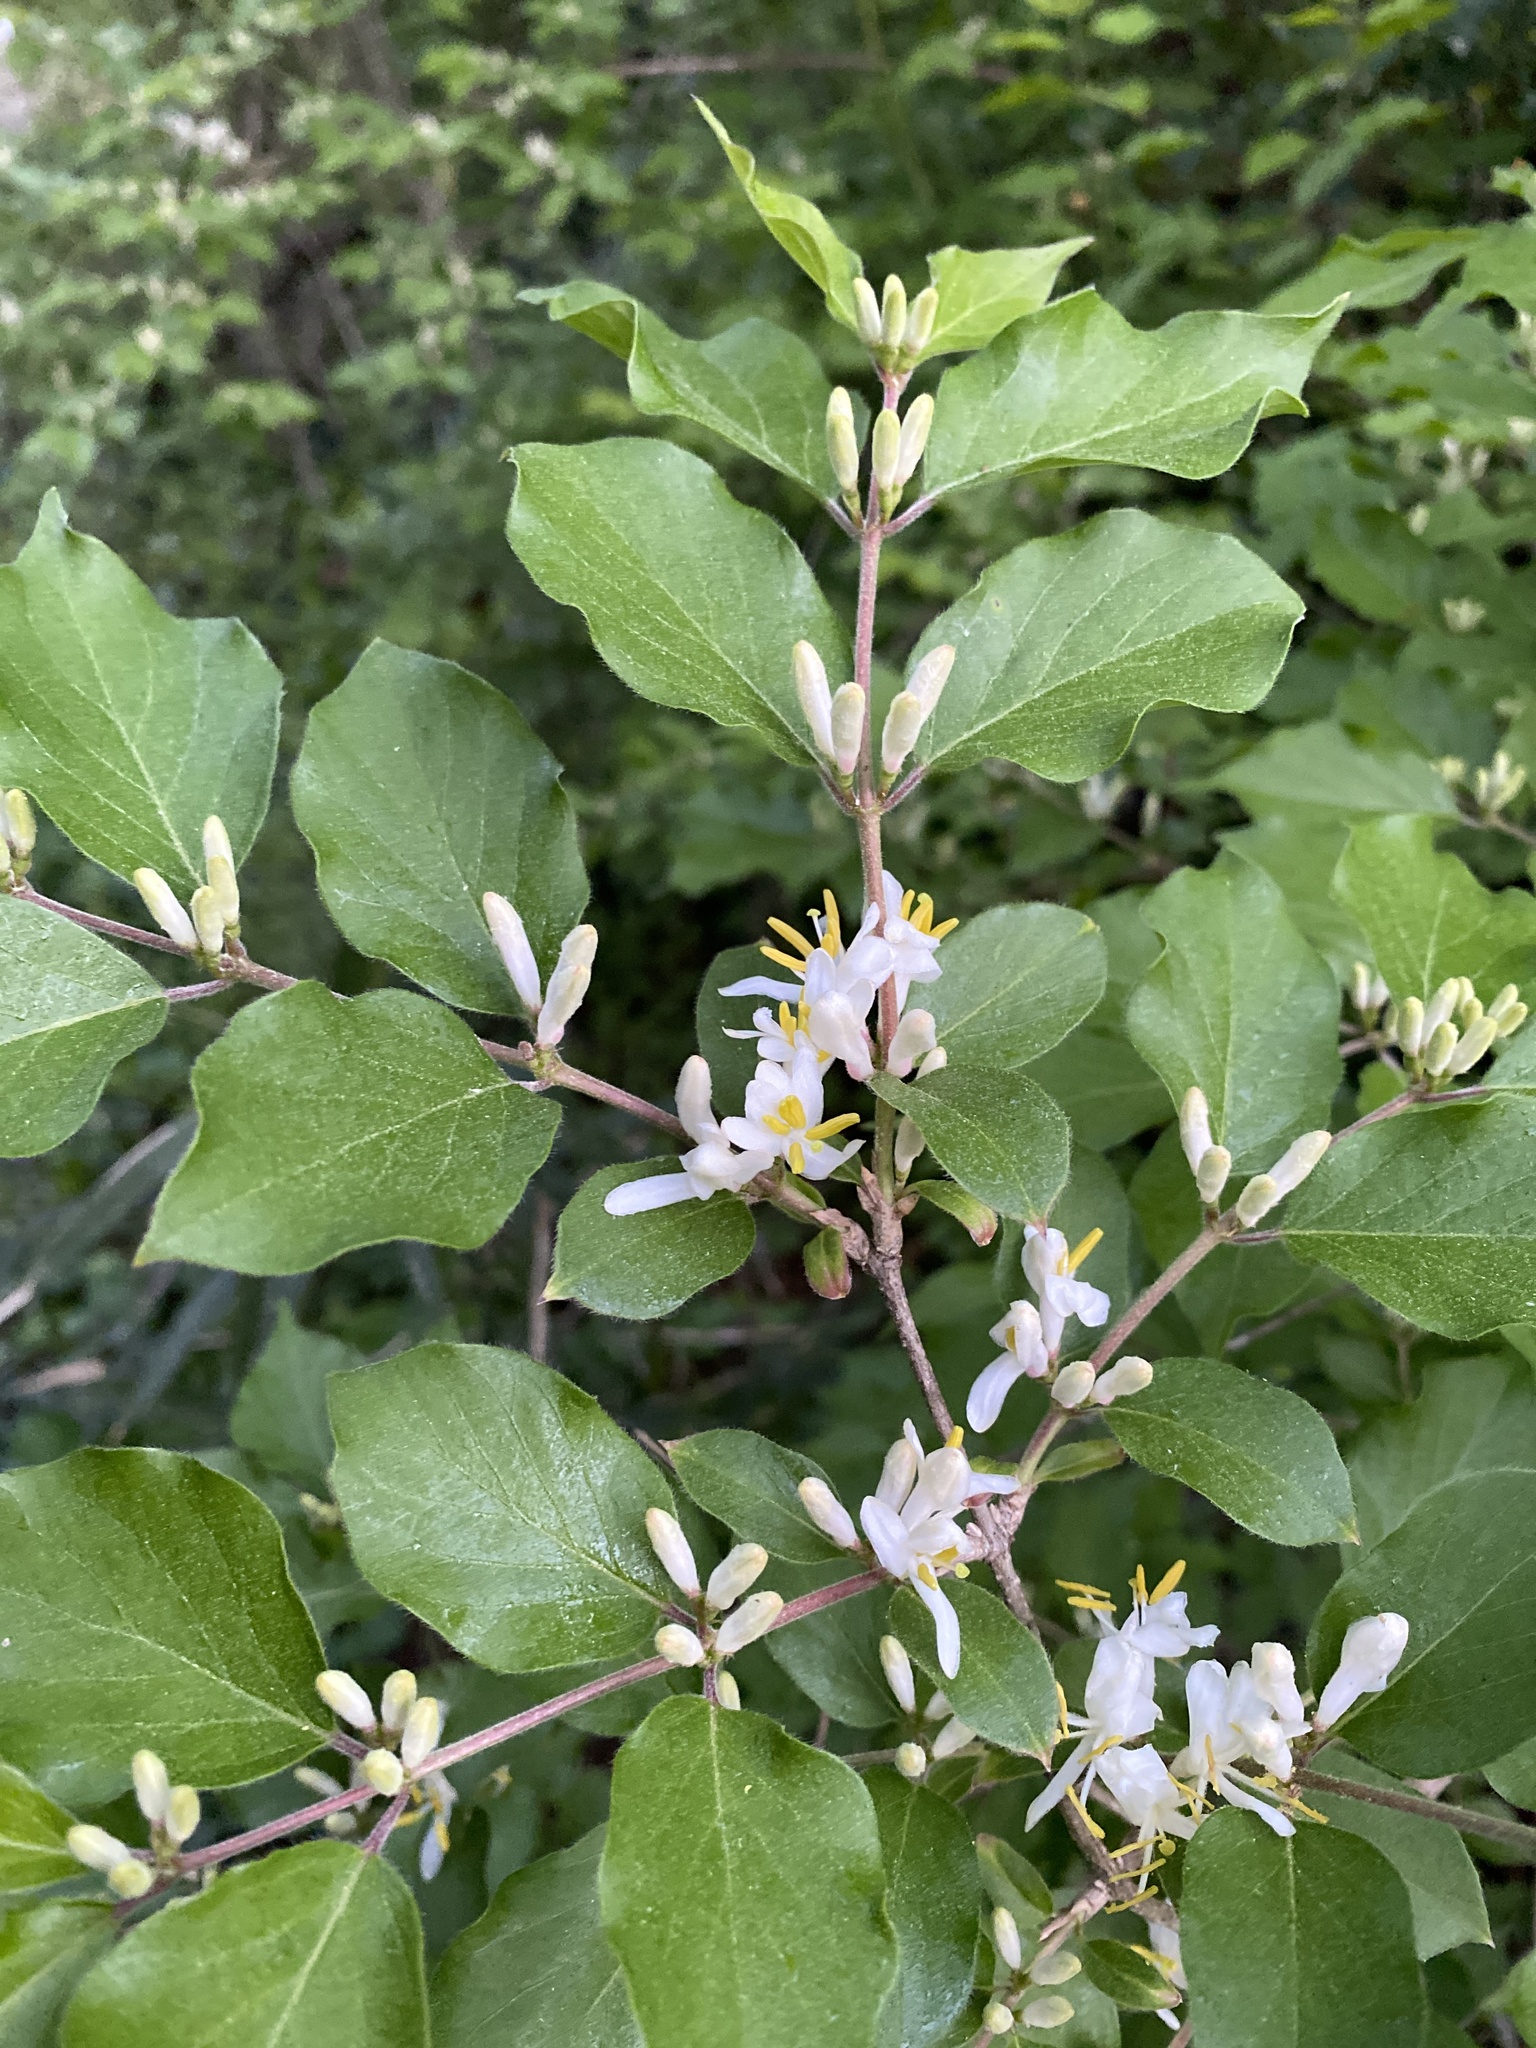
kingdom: Plantae
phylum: Tracheophyta
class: Magnoliopsida
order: Dipsacales
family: Caprifoliaceae
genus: Lonicera
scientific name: Lonicera maackii
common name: Amur honeysuckle
